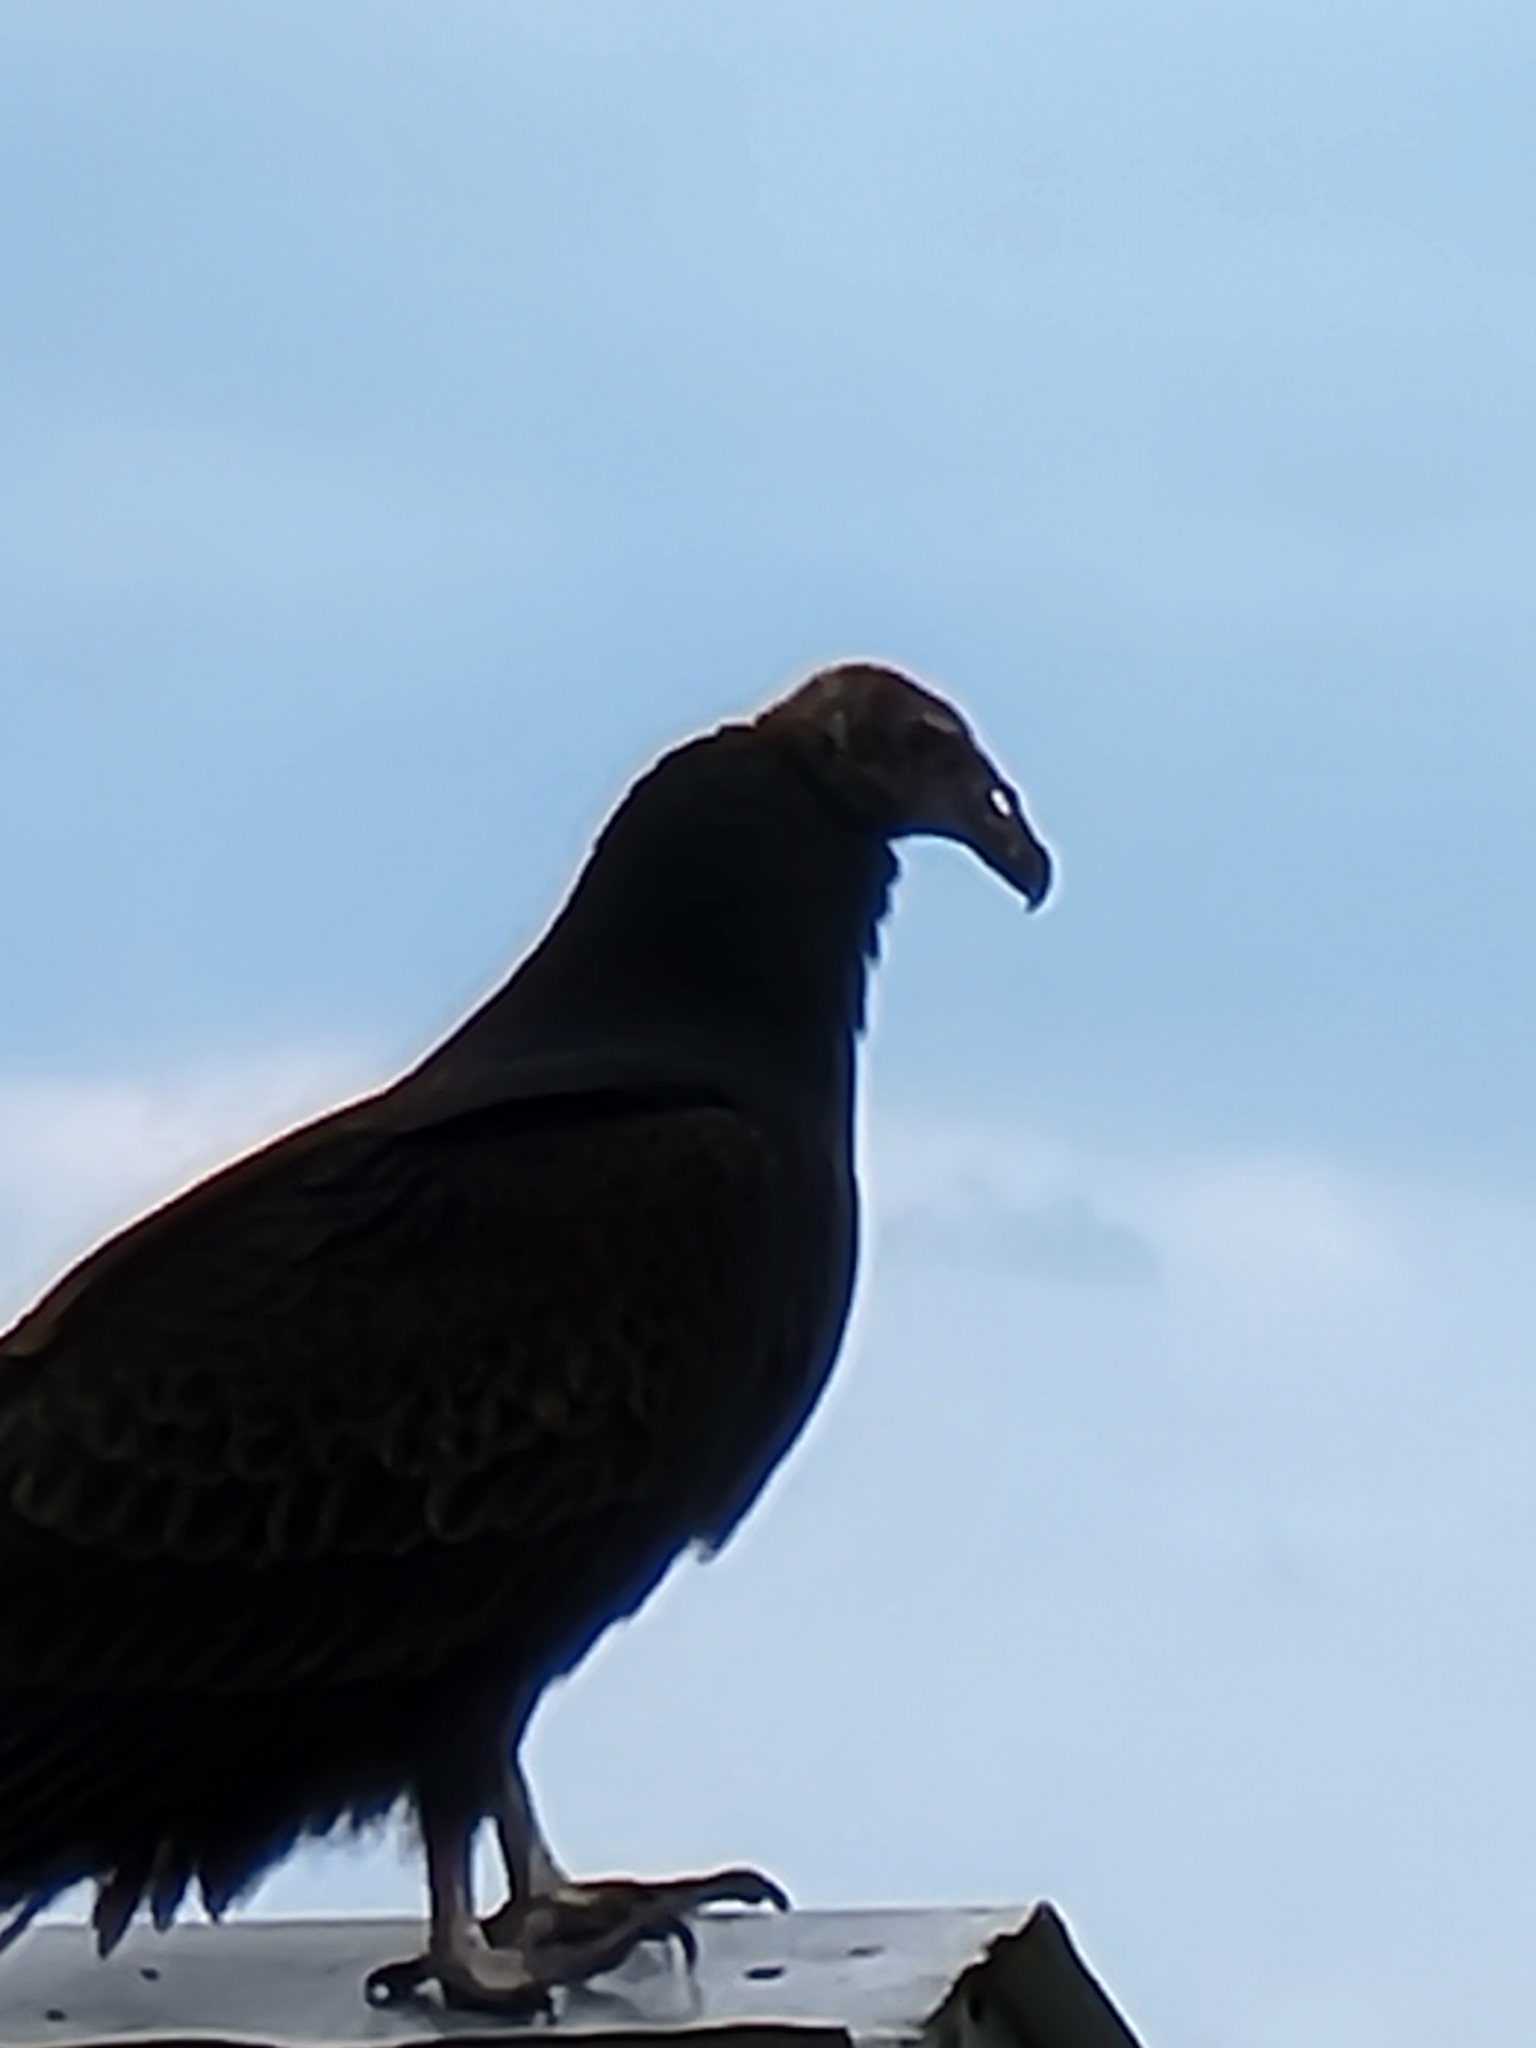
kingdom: Animalia
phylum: Chordata
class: Aves
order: Accipitriformes
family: Cathartidae
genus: Cathartes
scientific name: Cathartes aura
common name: Turkey vulture
